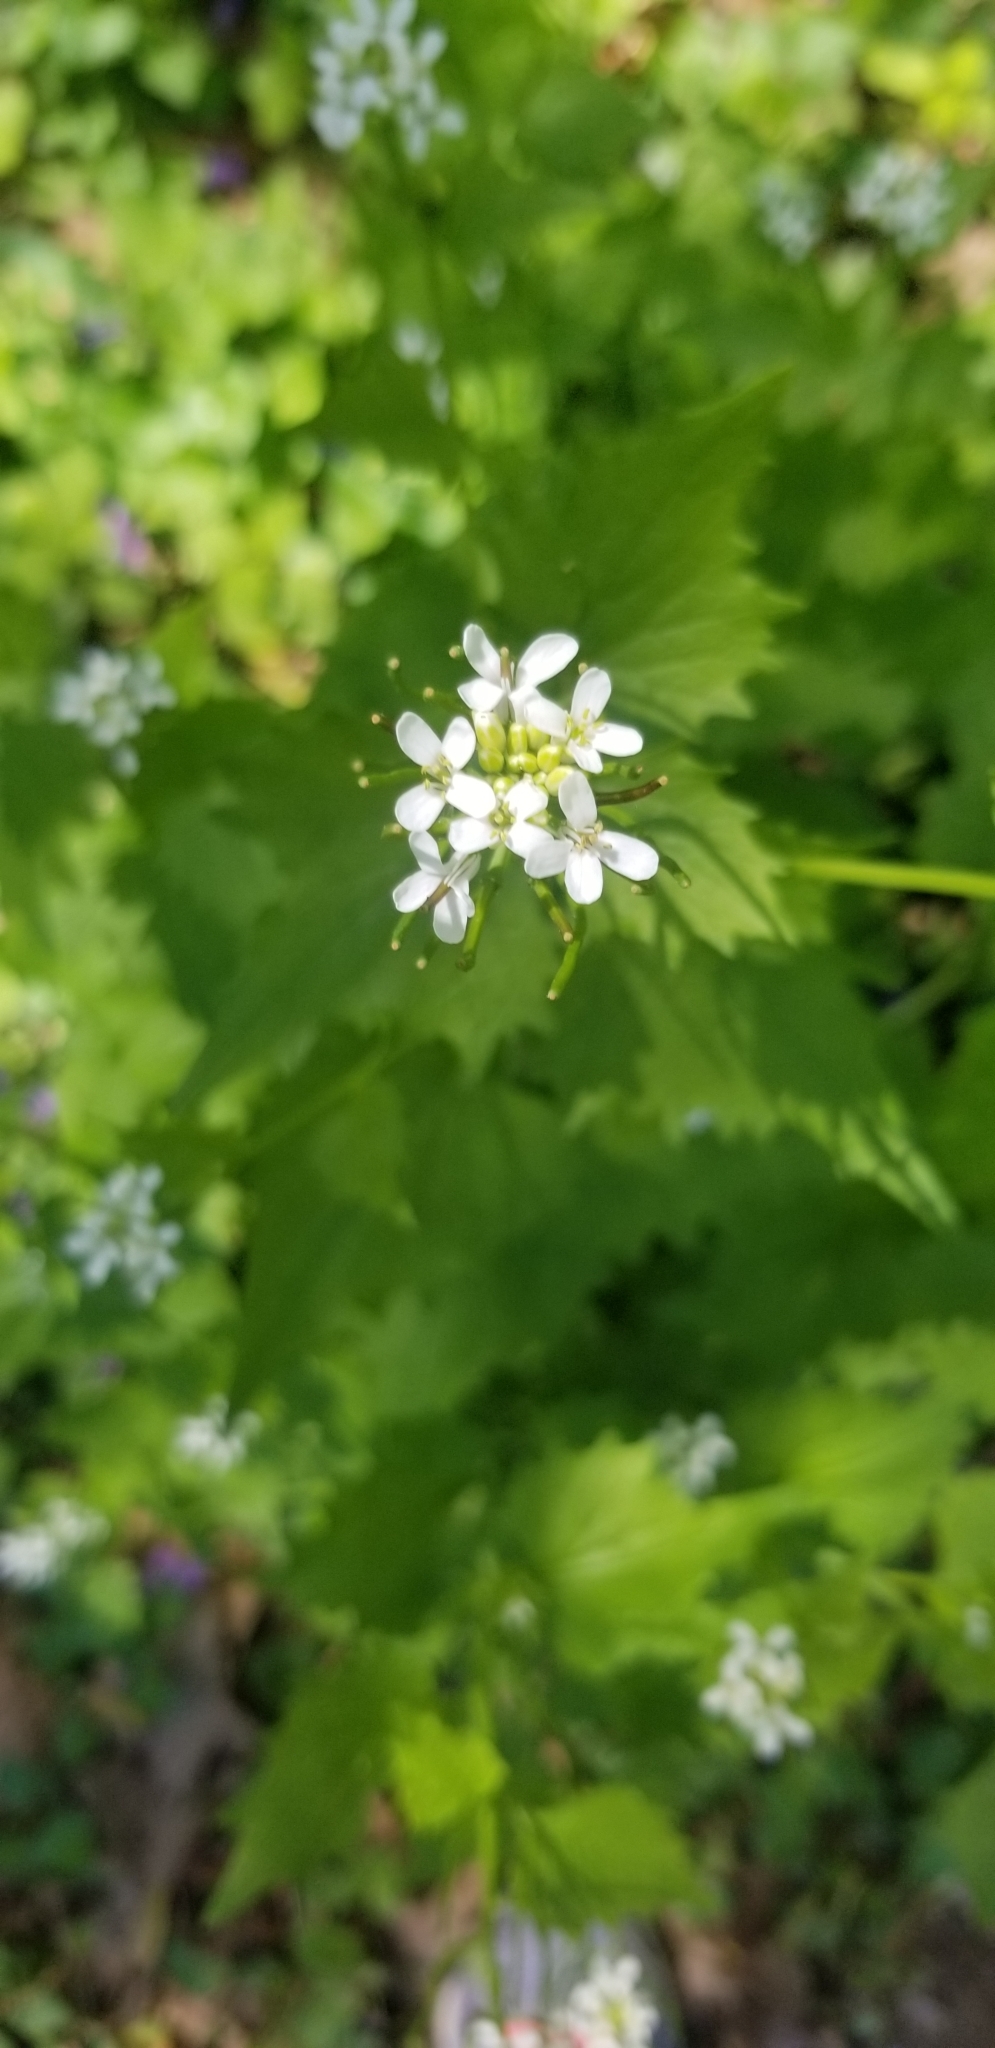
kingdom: Plantae
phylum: Tracheophyta
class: Magnoliopsida
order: Brassicales
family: Brassicaceae
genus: Alliaria
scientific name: Alliaria petiolata
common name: Garlic mustard
